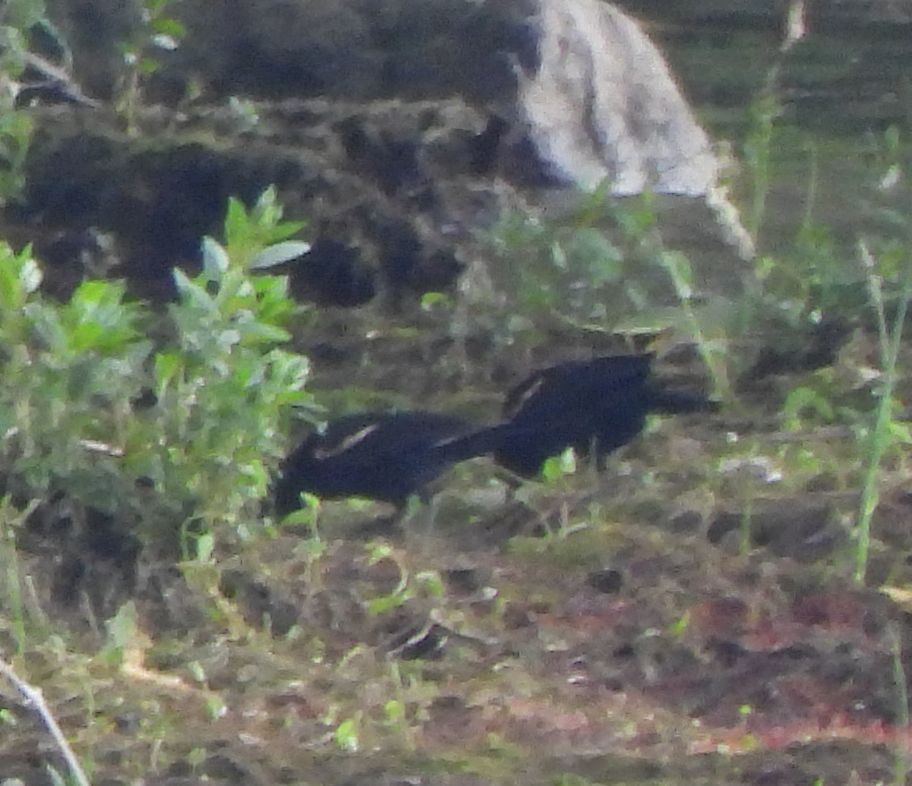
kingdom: Animalia
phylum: Chordata
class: Aves
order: Passeriformes
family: Icteridae
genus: Agelaius
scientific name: Agelaius phoeniceus
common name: Red-winged blackbird
